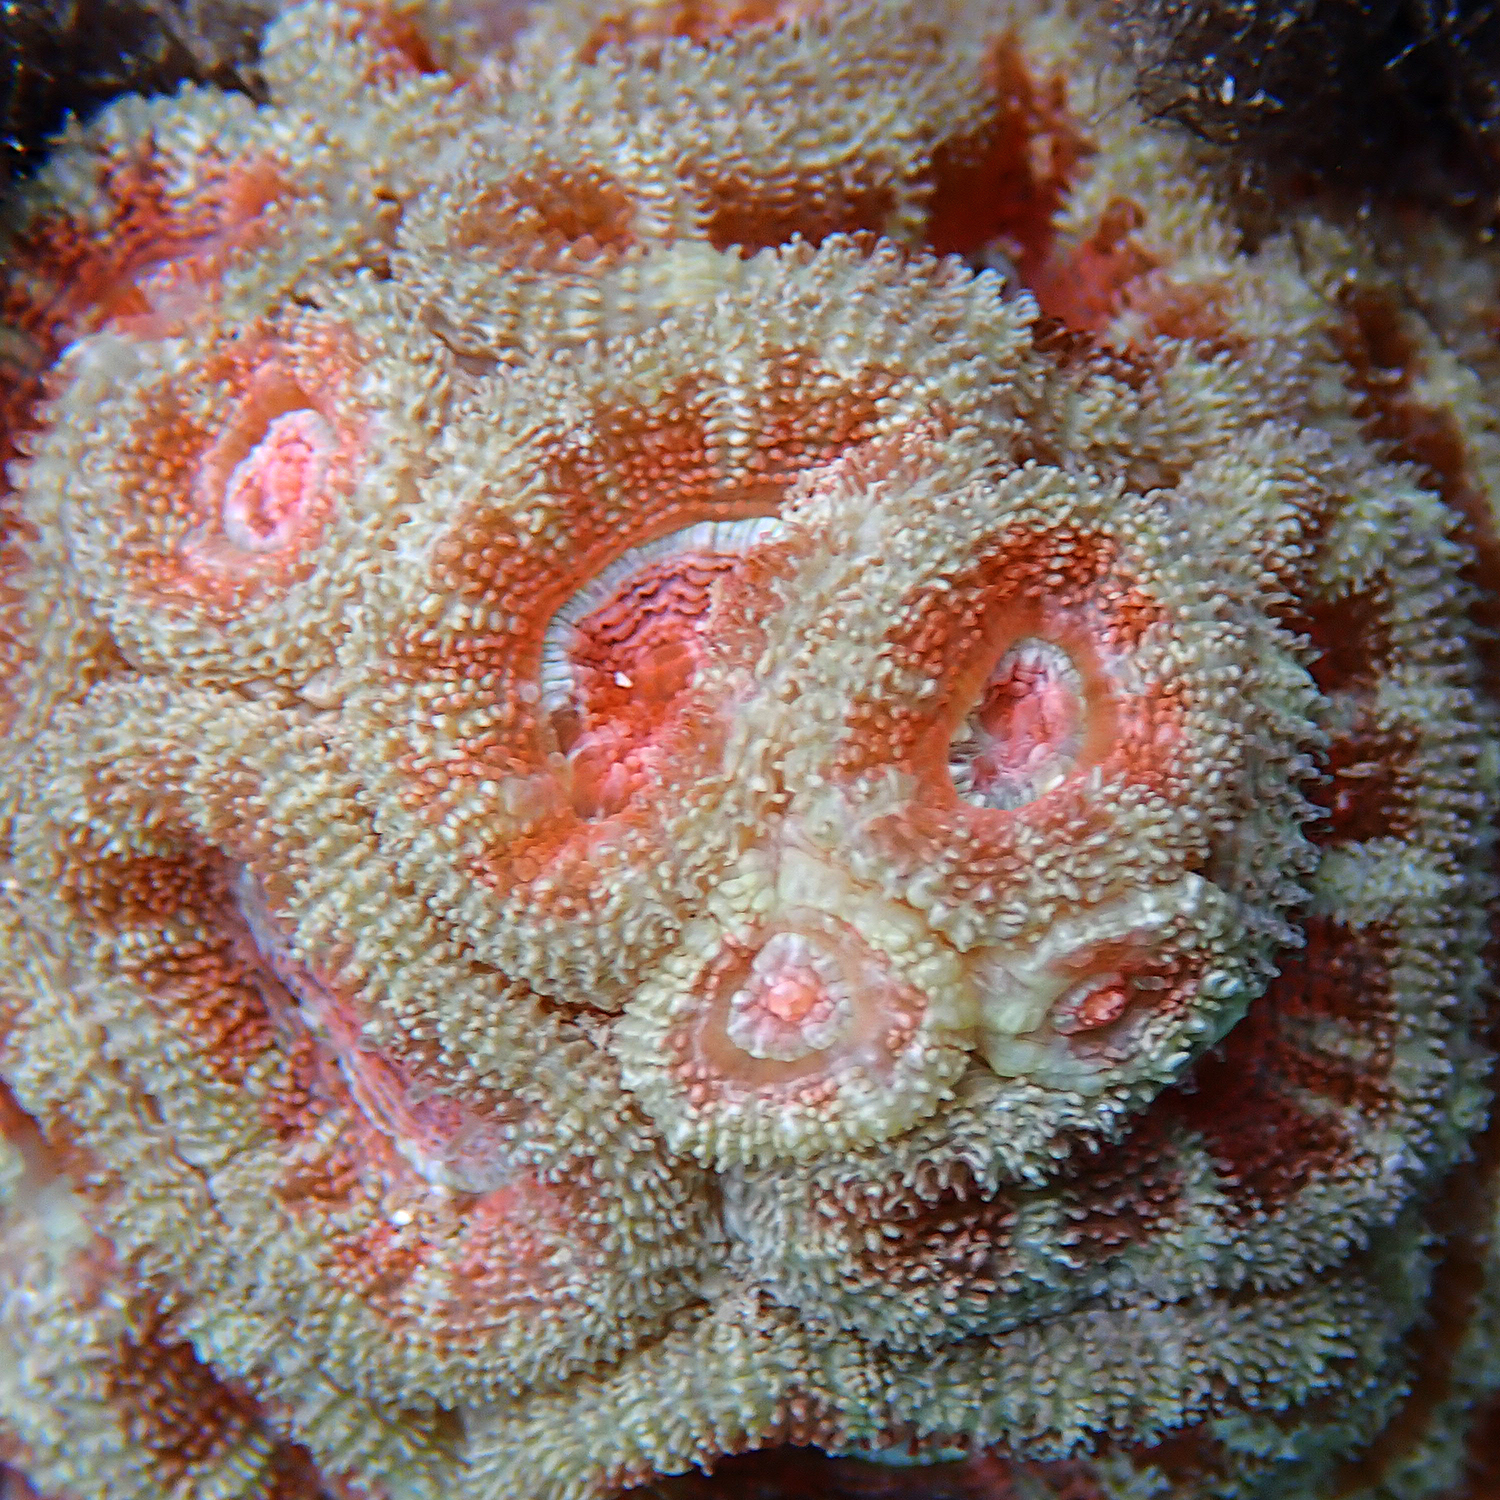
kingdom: Animalia
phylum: Cnidaria
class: Anthozoa
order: Scleractinia
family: Lobophylliidae
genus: Micromussa
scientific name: Micromussa lordhowensis
